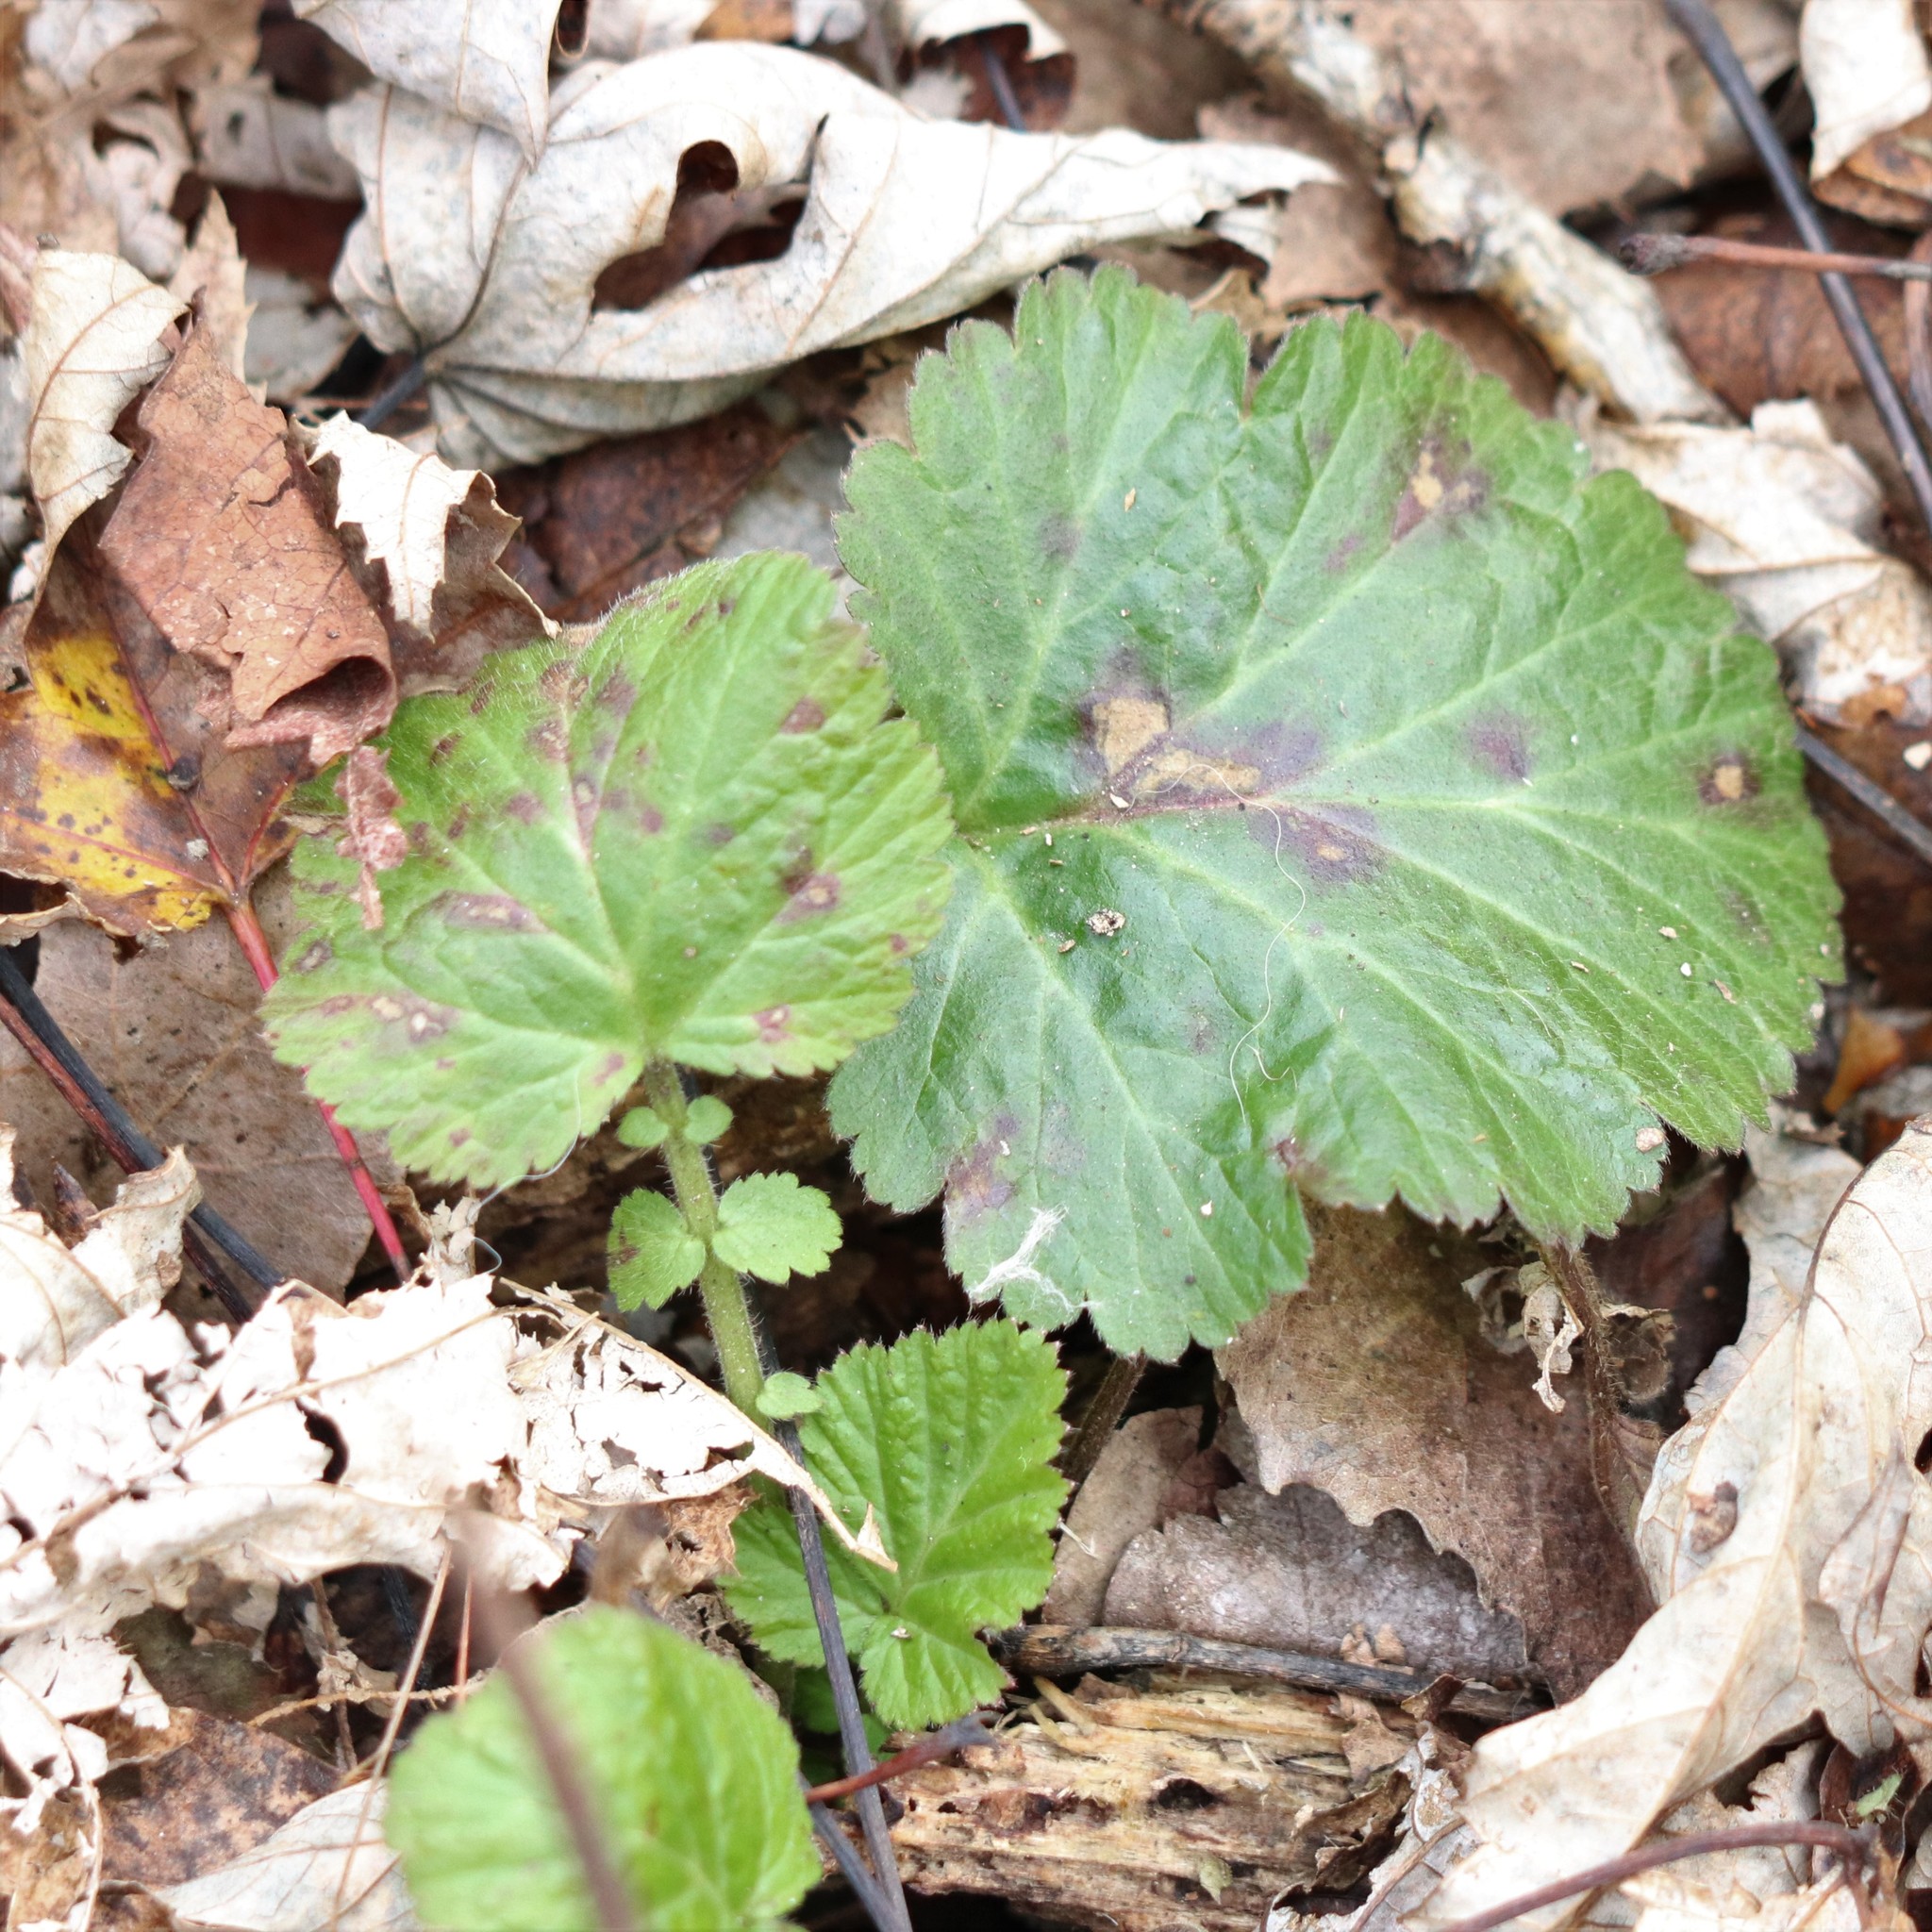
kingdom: Plantae
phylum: Tracheophyta
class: Magnoliopsida
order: Rosales
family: Rosaceae
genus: Geum
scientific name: Geum canadense
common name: White avens
